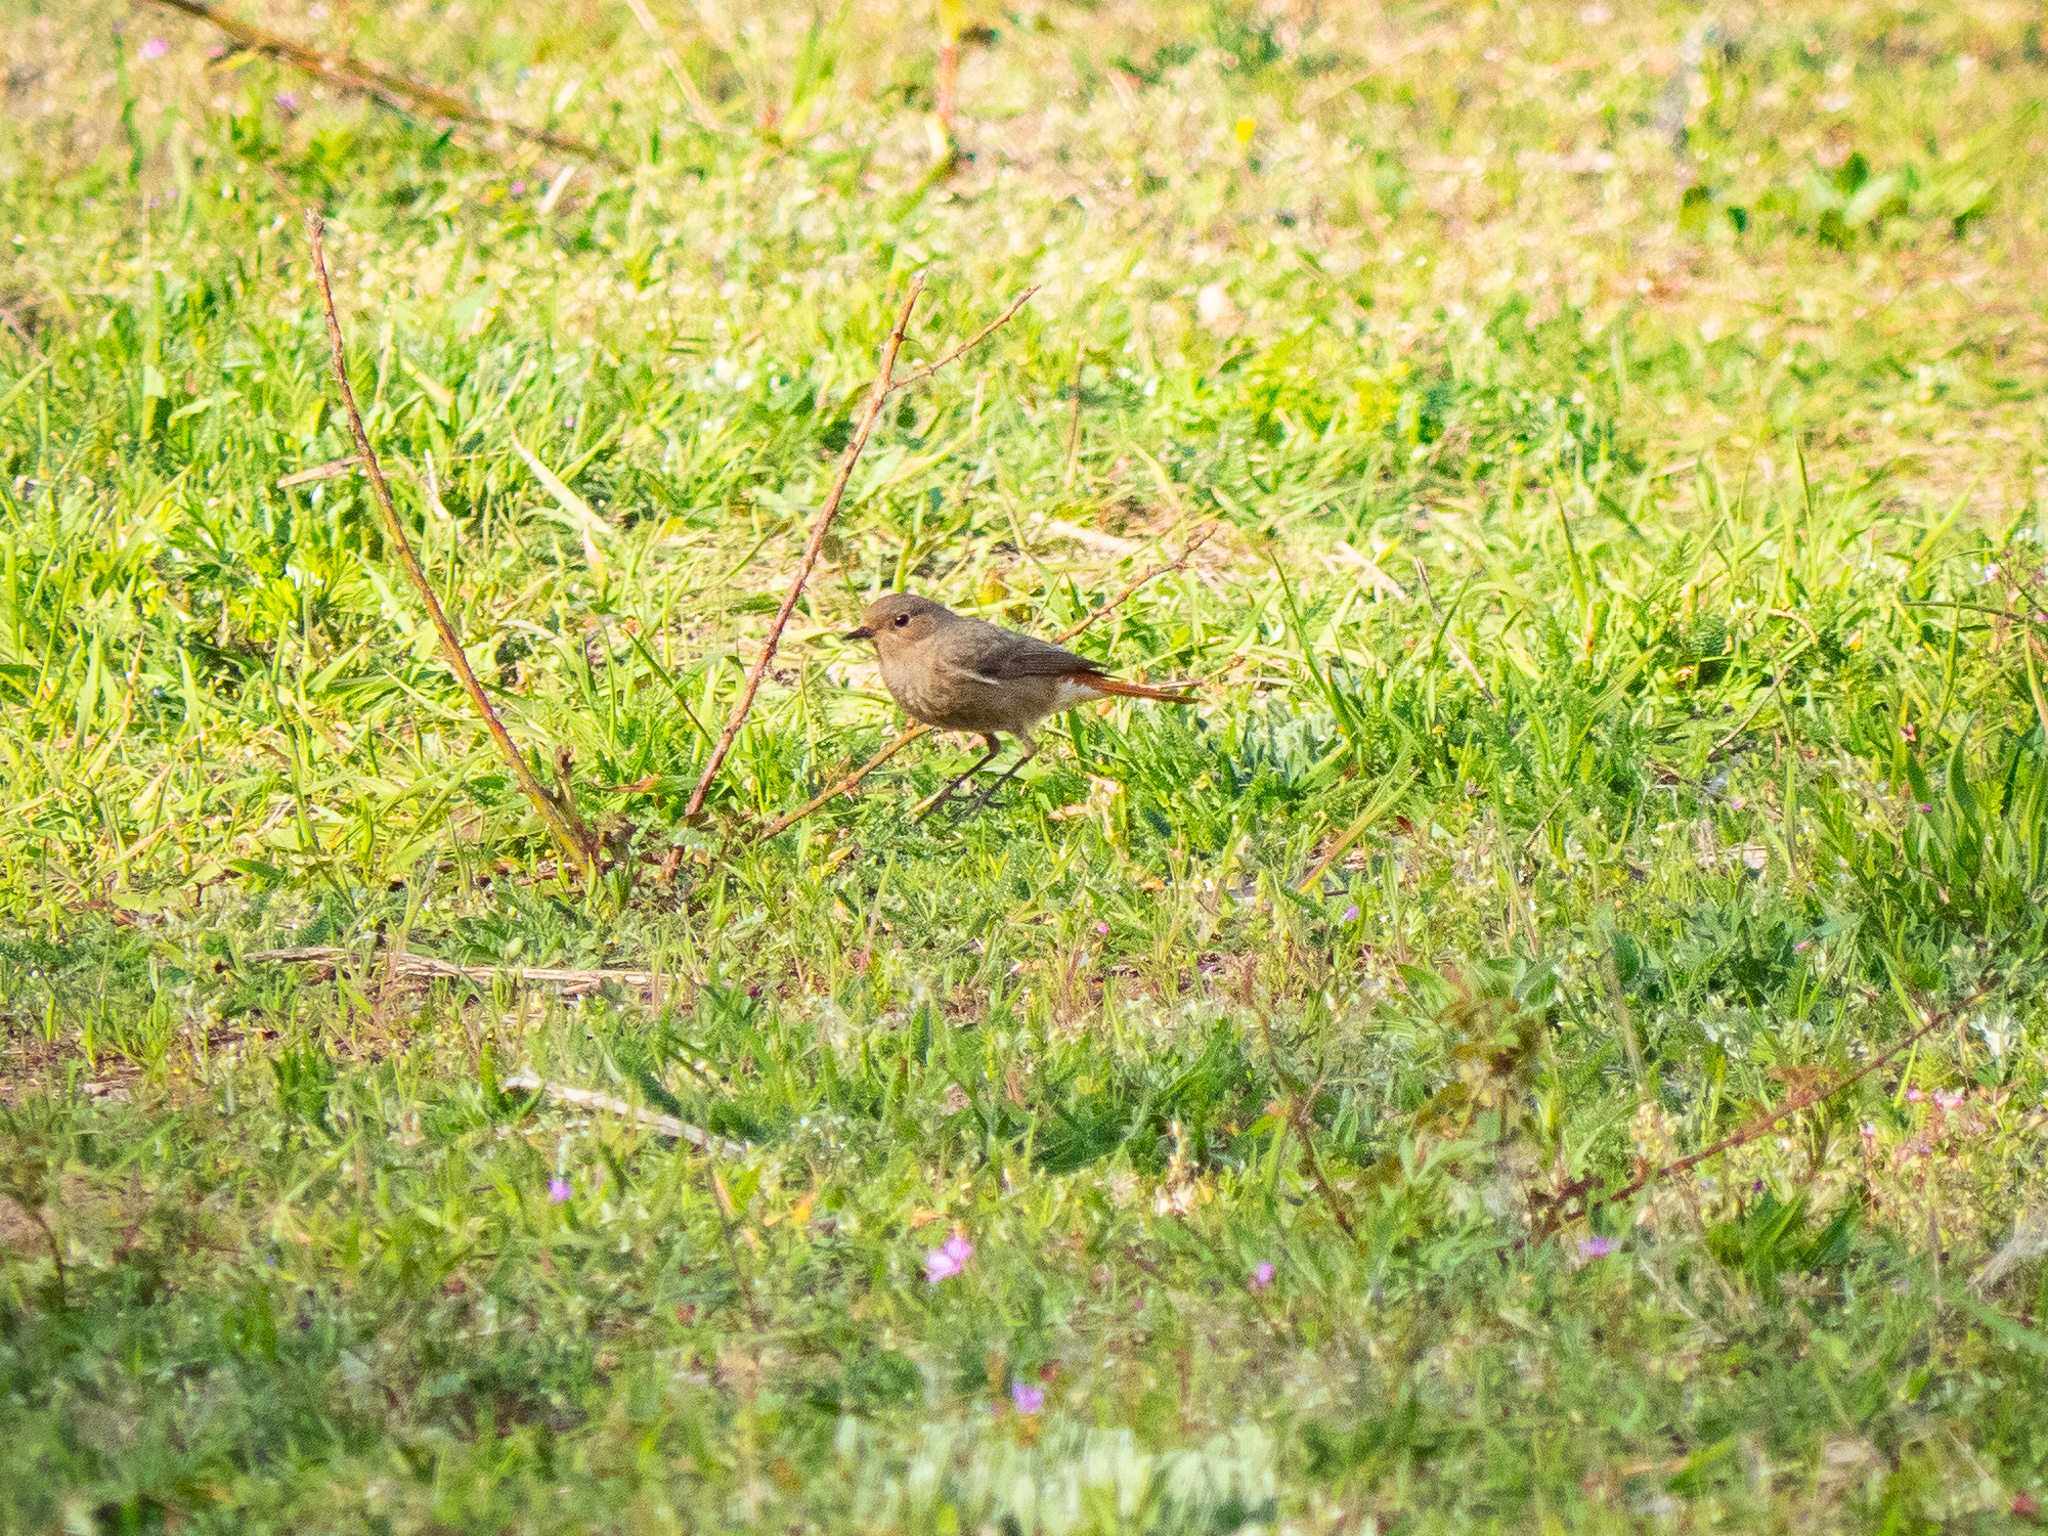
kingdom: Animalia
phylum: Chordata
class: Aves
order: Passeriformes
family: Muscicapidae
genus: Phoenicurus
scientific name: Phoenicurus ochruros
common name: Black redstart
